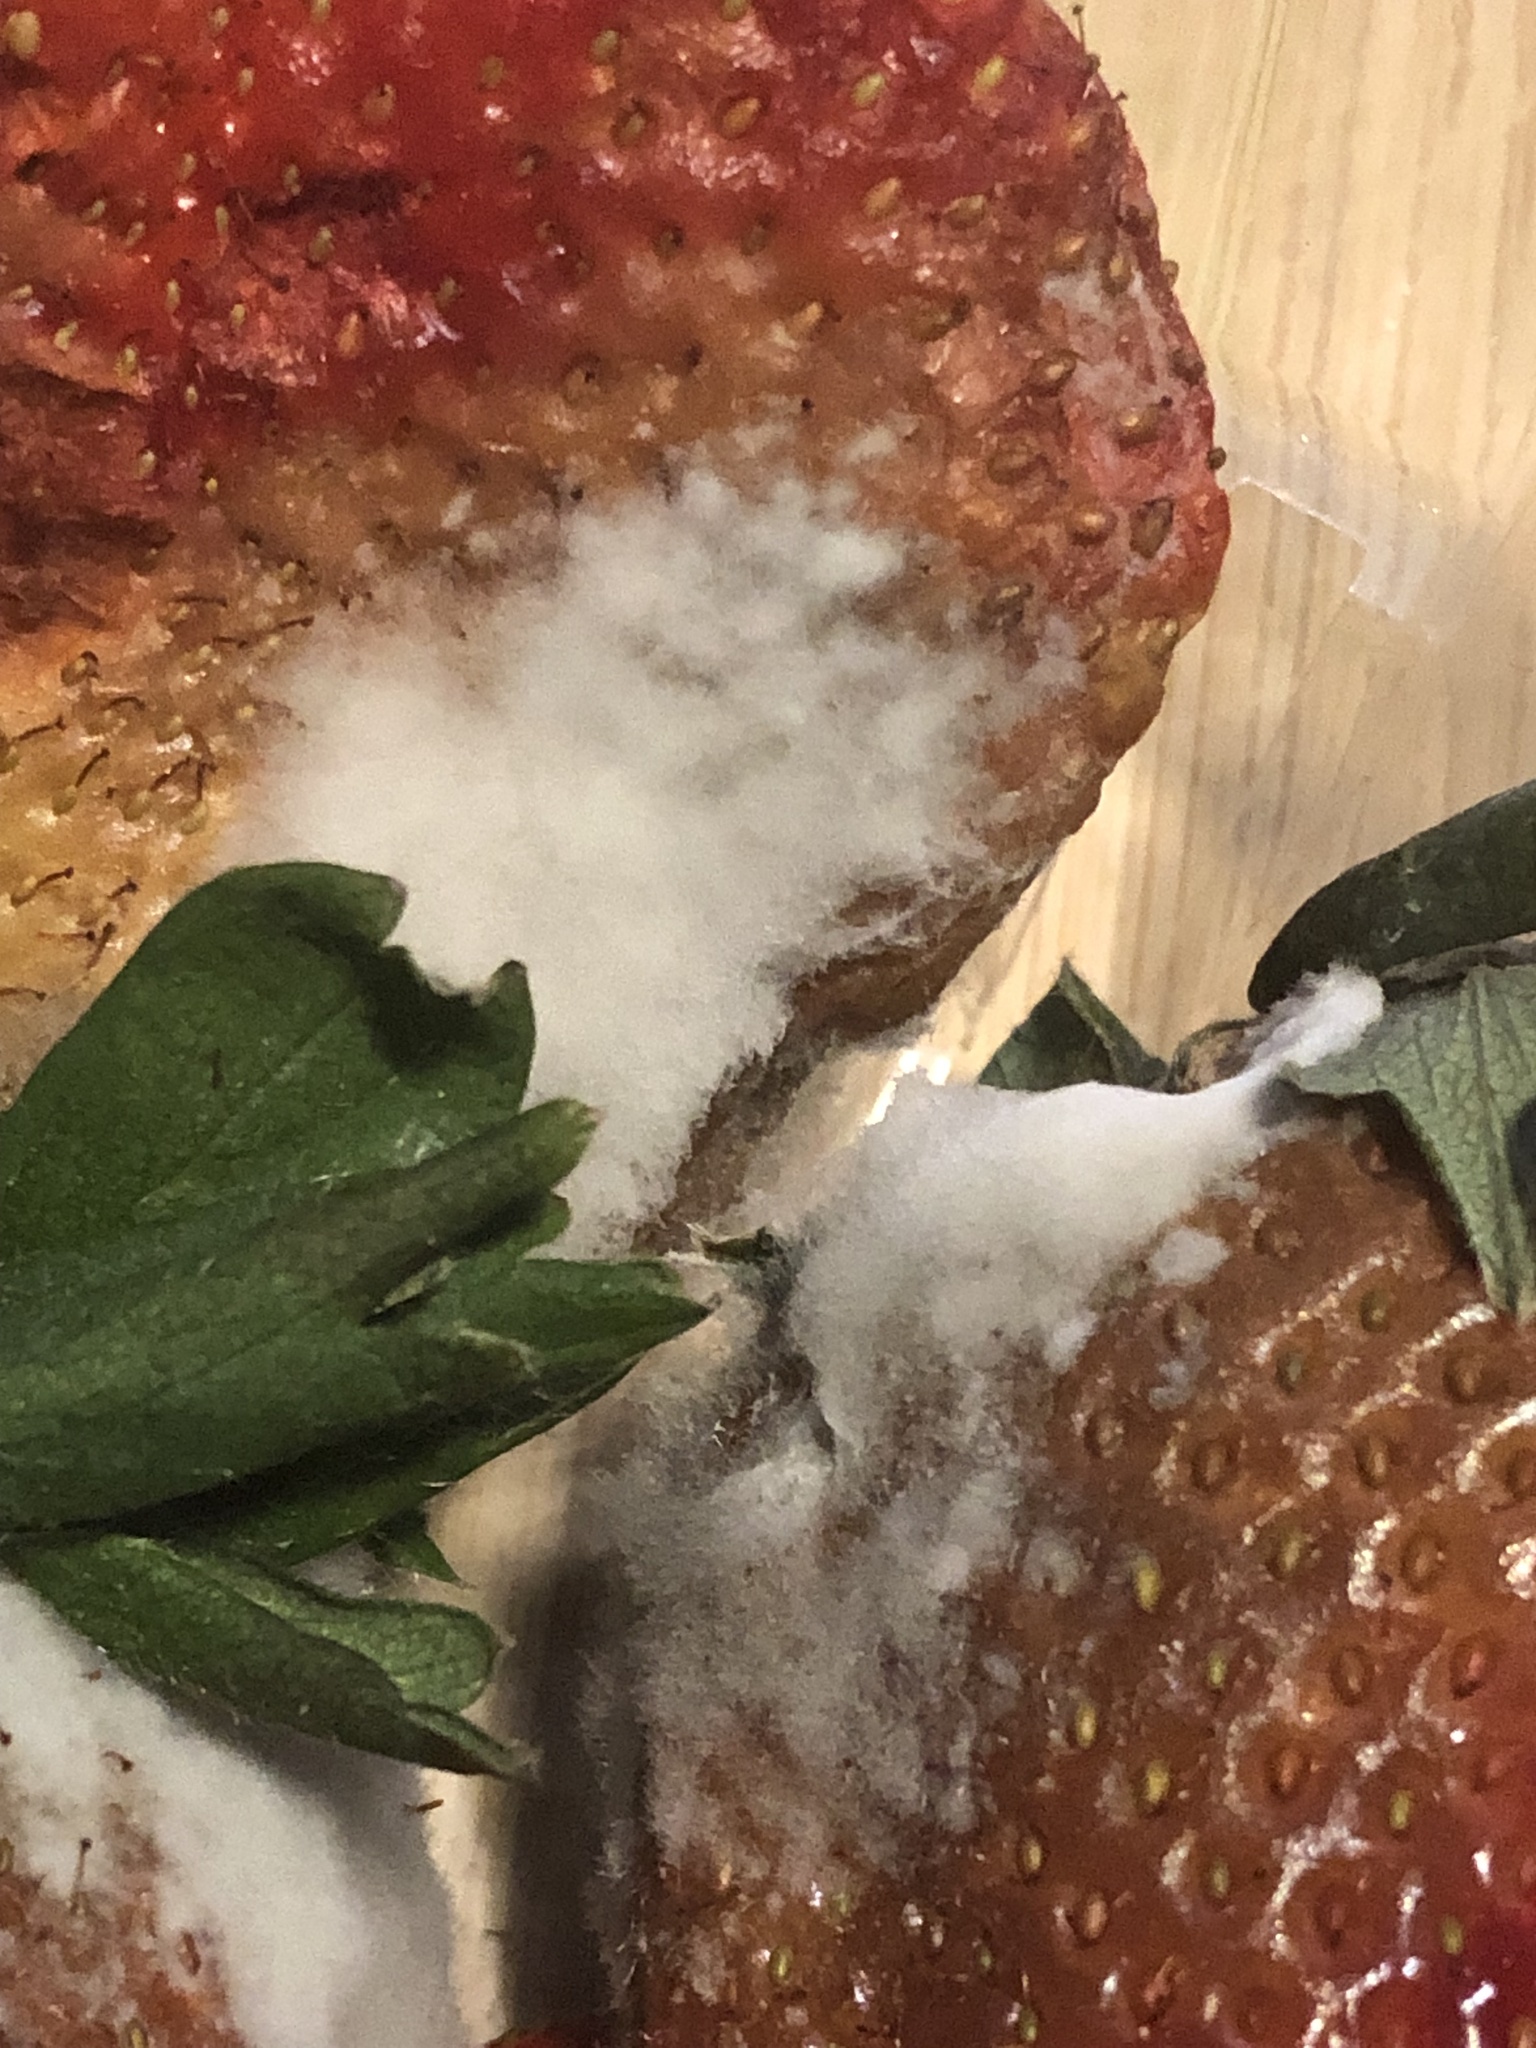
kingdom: Fungi
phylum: Ascomycota
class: Leotiomycetes
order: Helotiales
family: Sclerotiniaceae
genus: Botrytis
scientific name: Botrytis cinerea
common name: Grey mould
